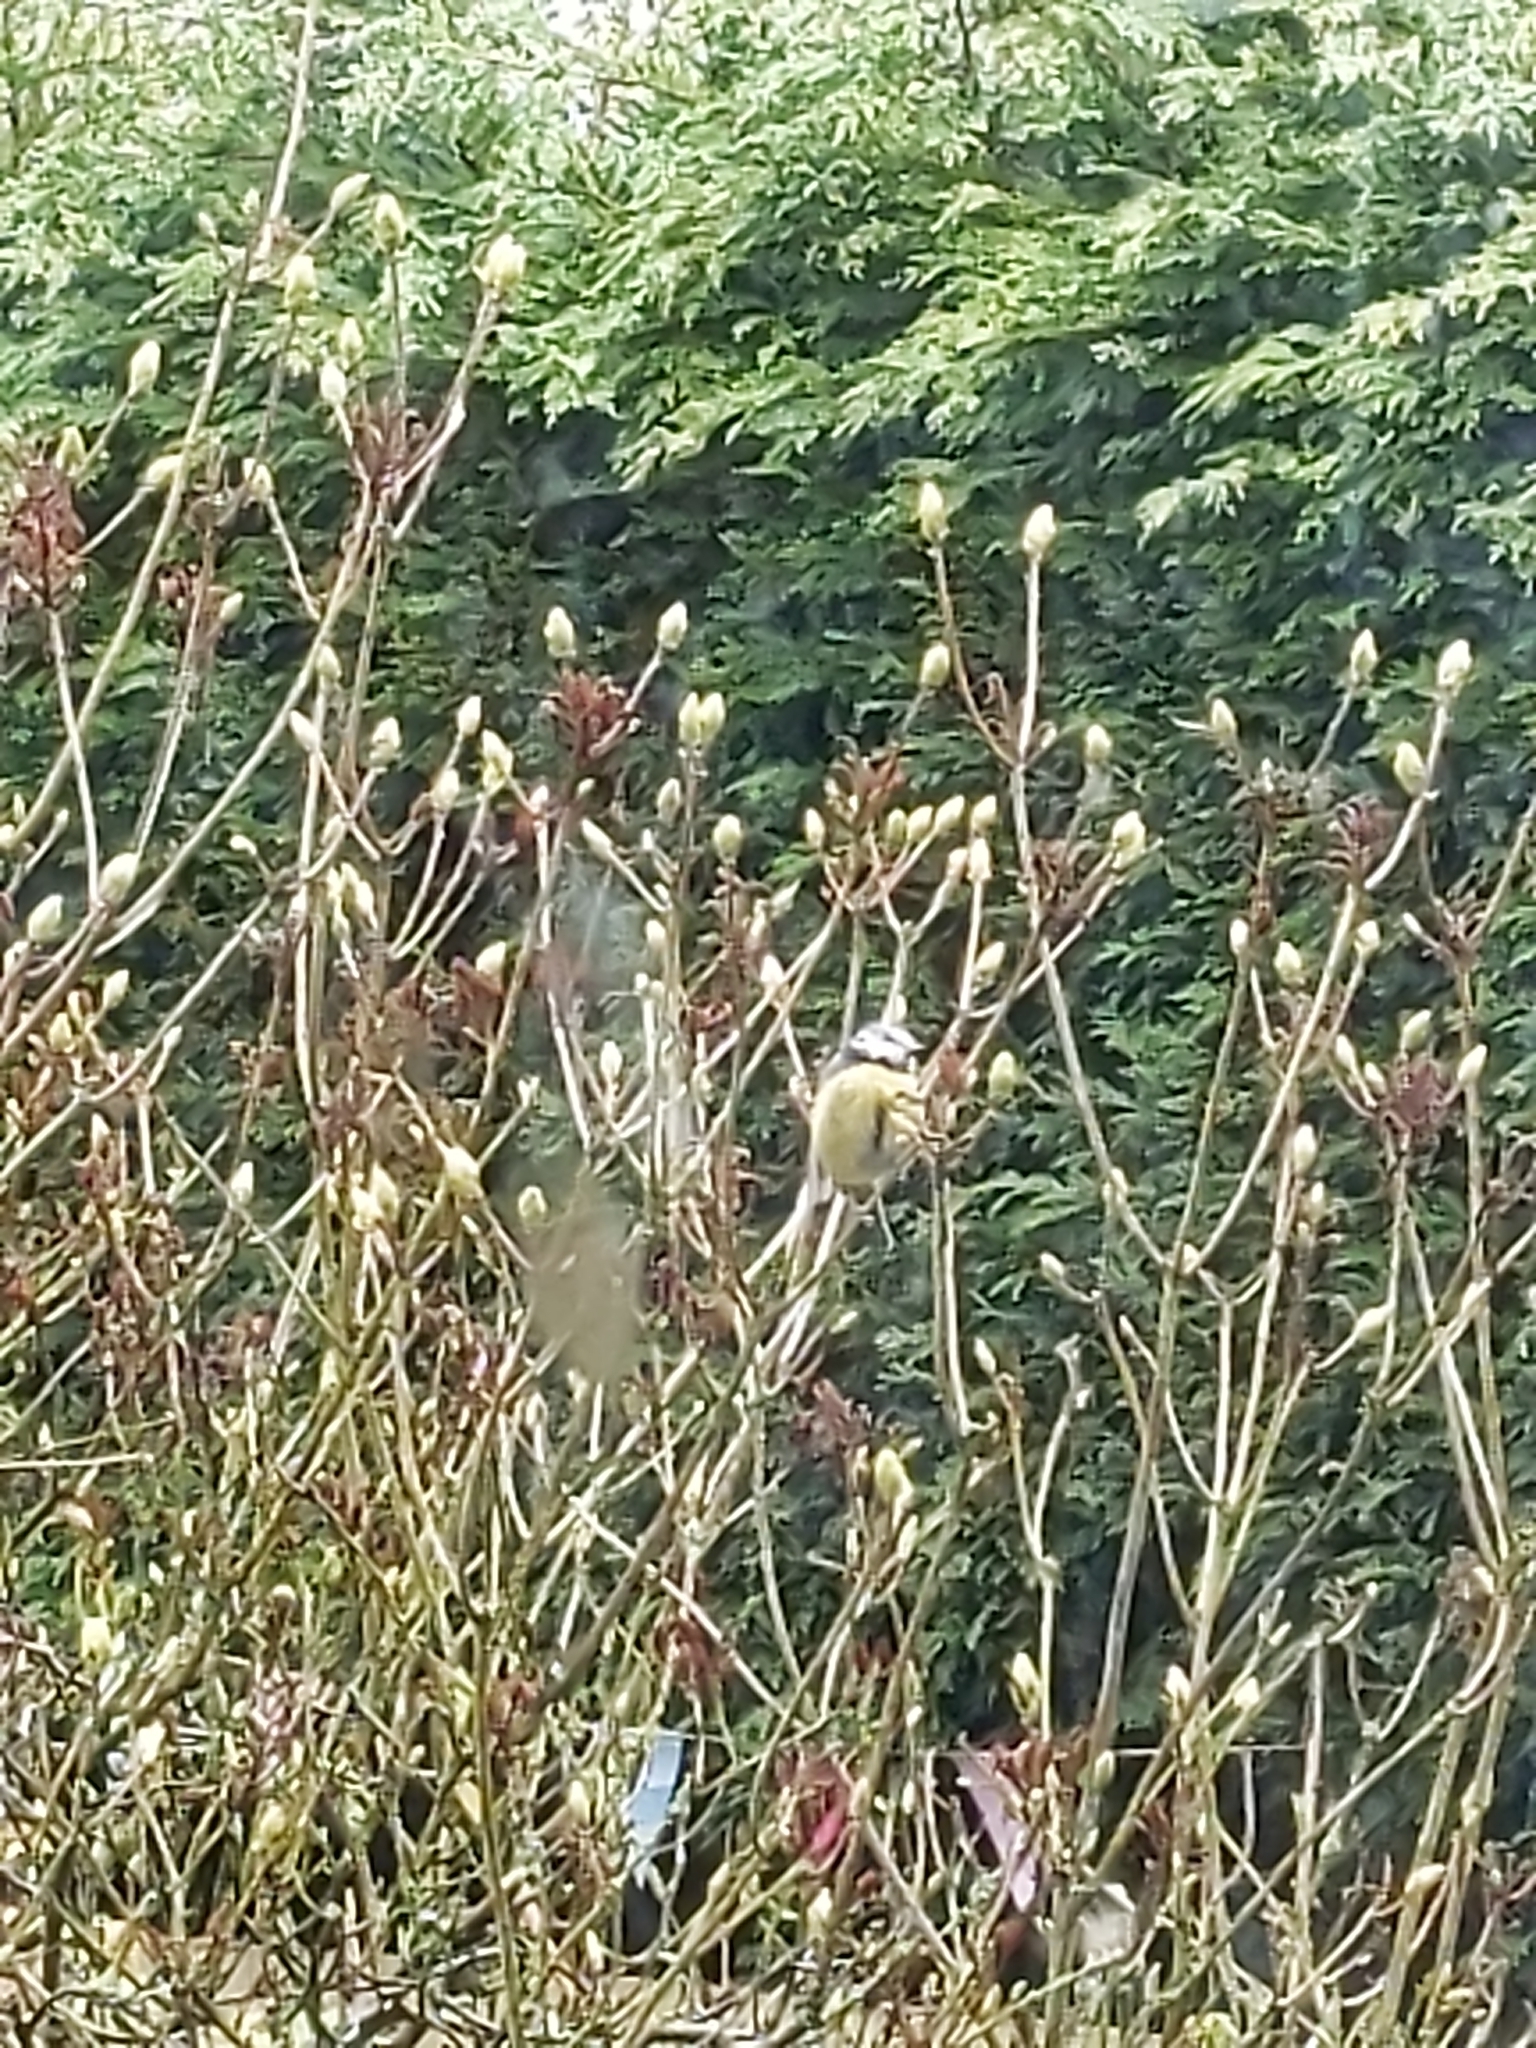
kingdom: Animalia
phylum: Chordata
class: Aves
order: Passeriformes
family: Paridae
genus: Cyanistes
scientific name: Cyanistes caeruleus
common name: Eurasian blue tit
